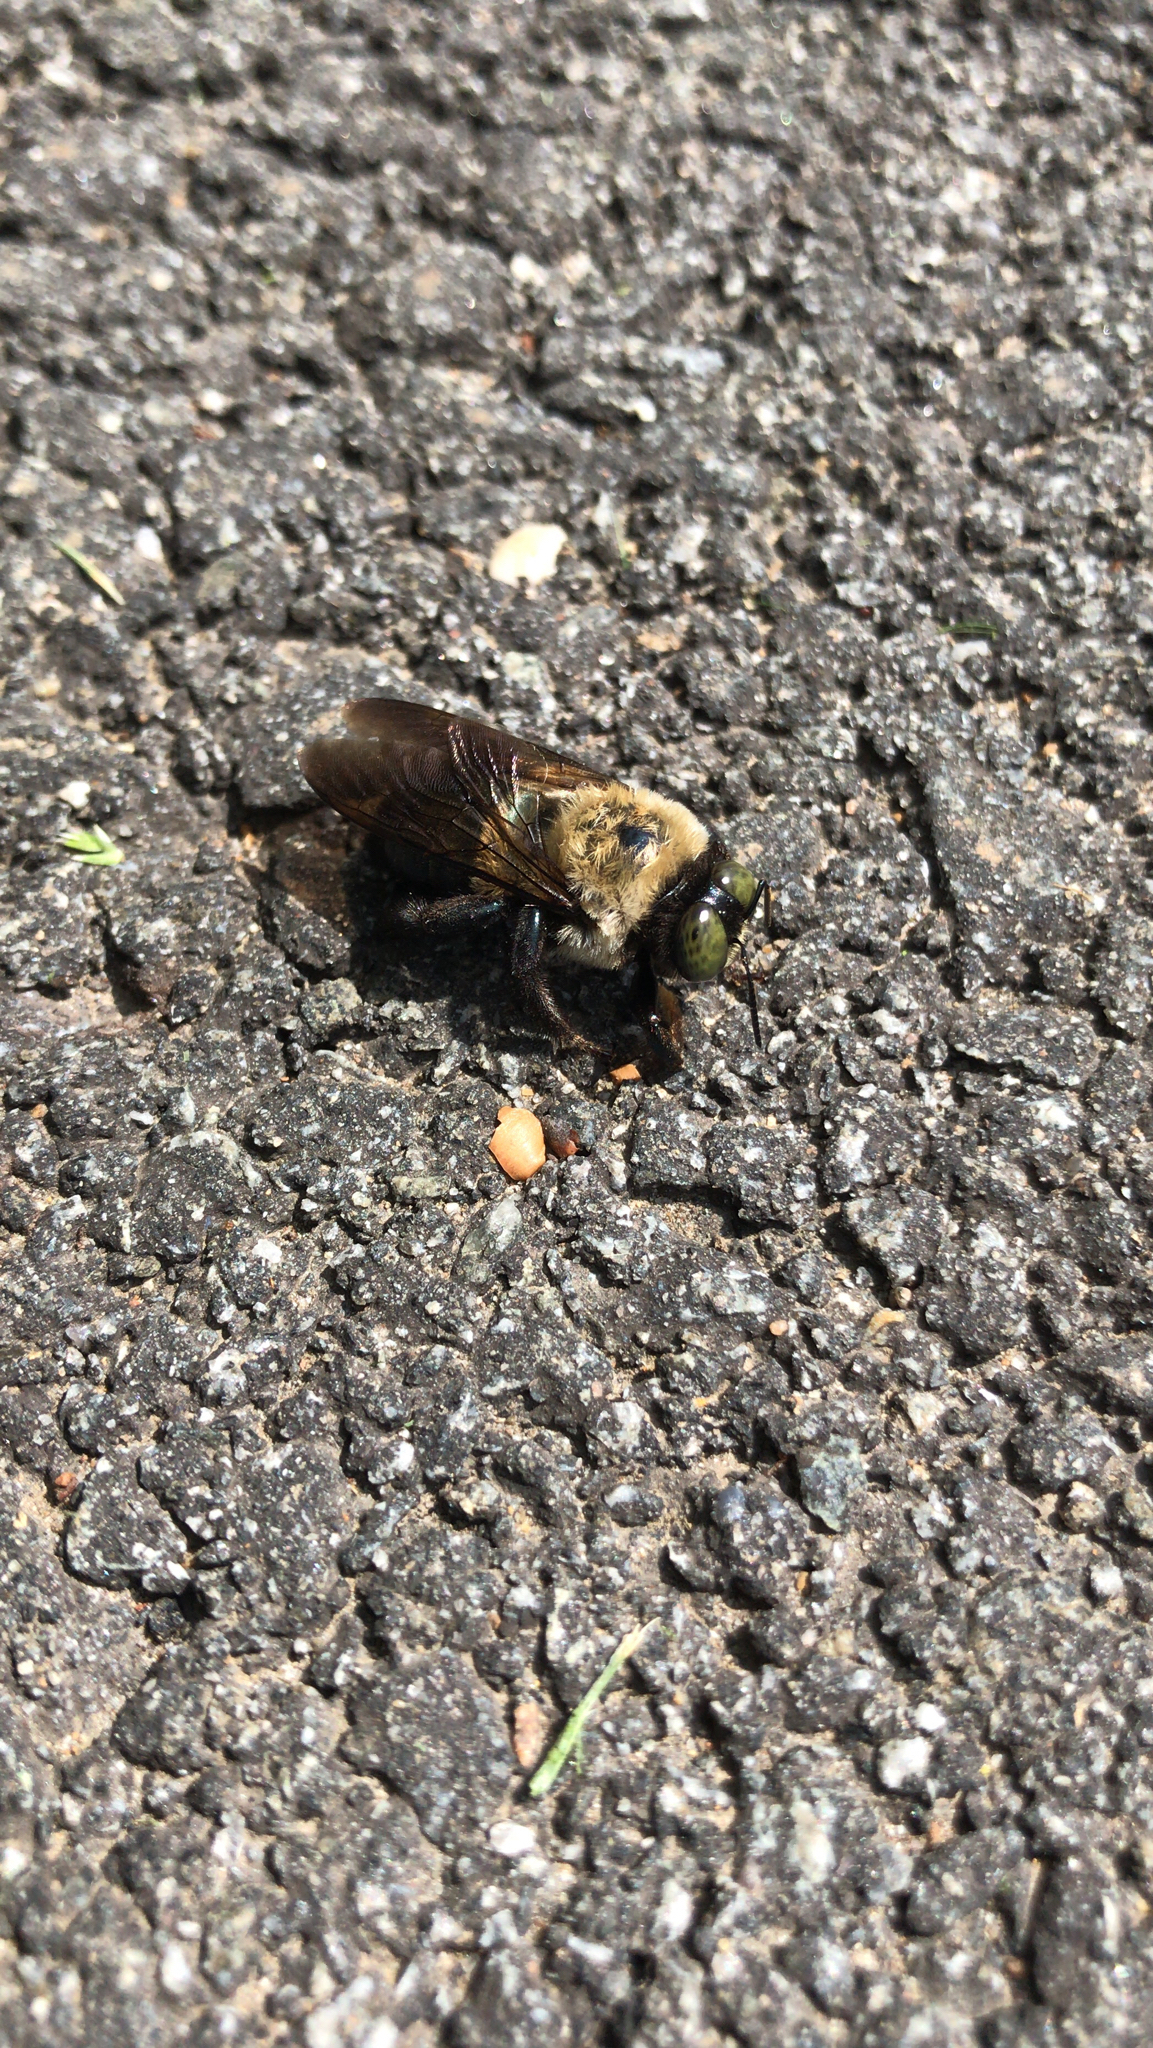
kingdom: Animalia
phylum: Arthropoda
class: Insecta
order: Hymenoptera
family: Apidae
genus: Xylocopa
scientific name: Xylocopa virginica
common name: Carpenter bee
